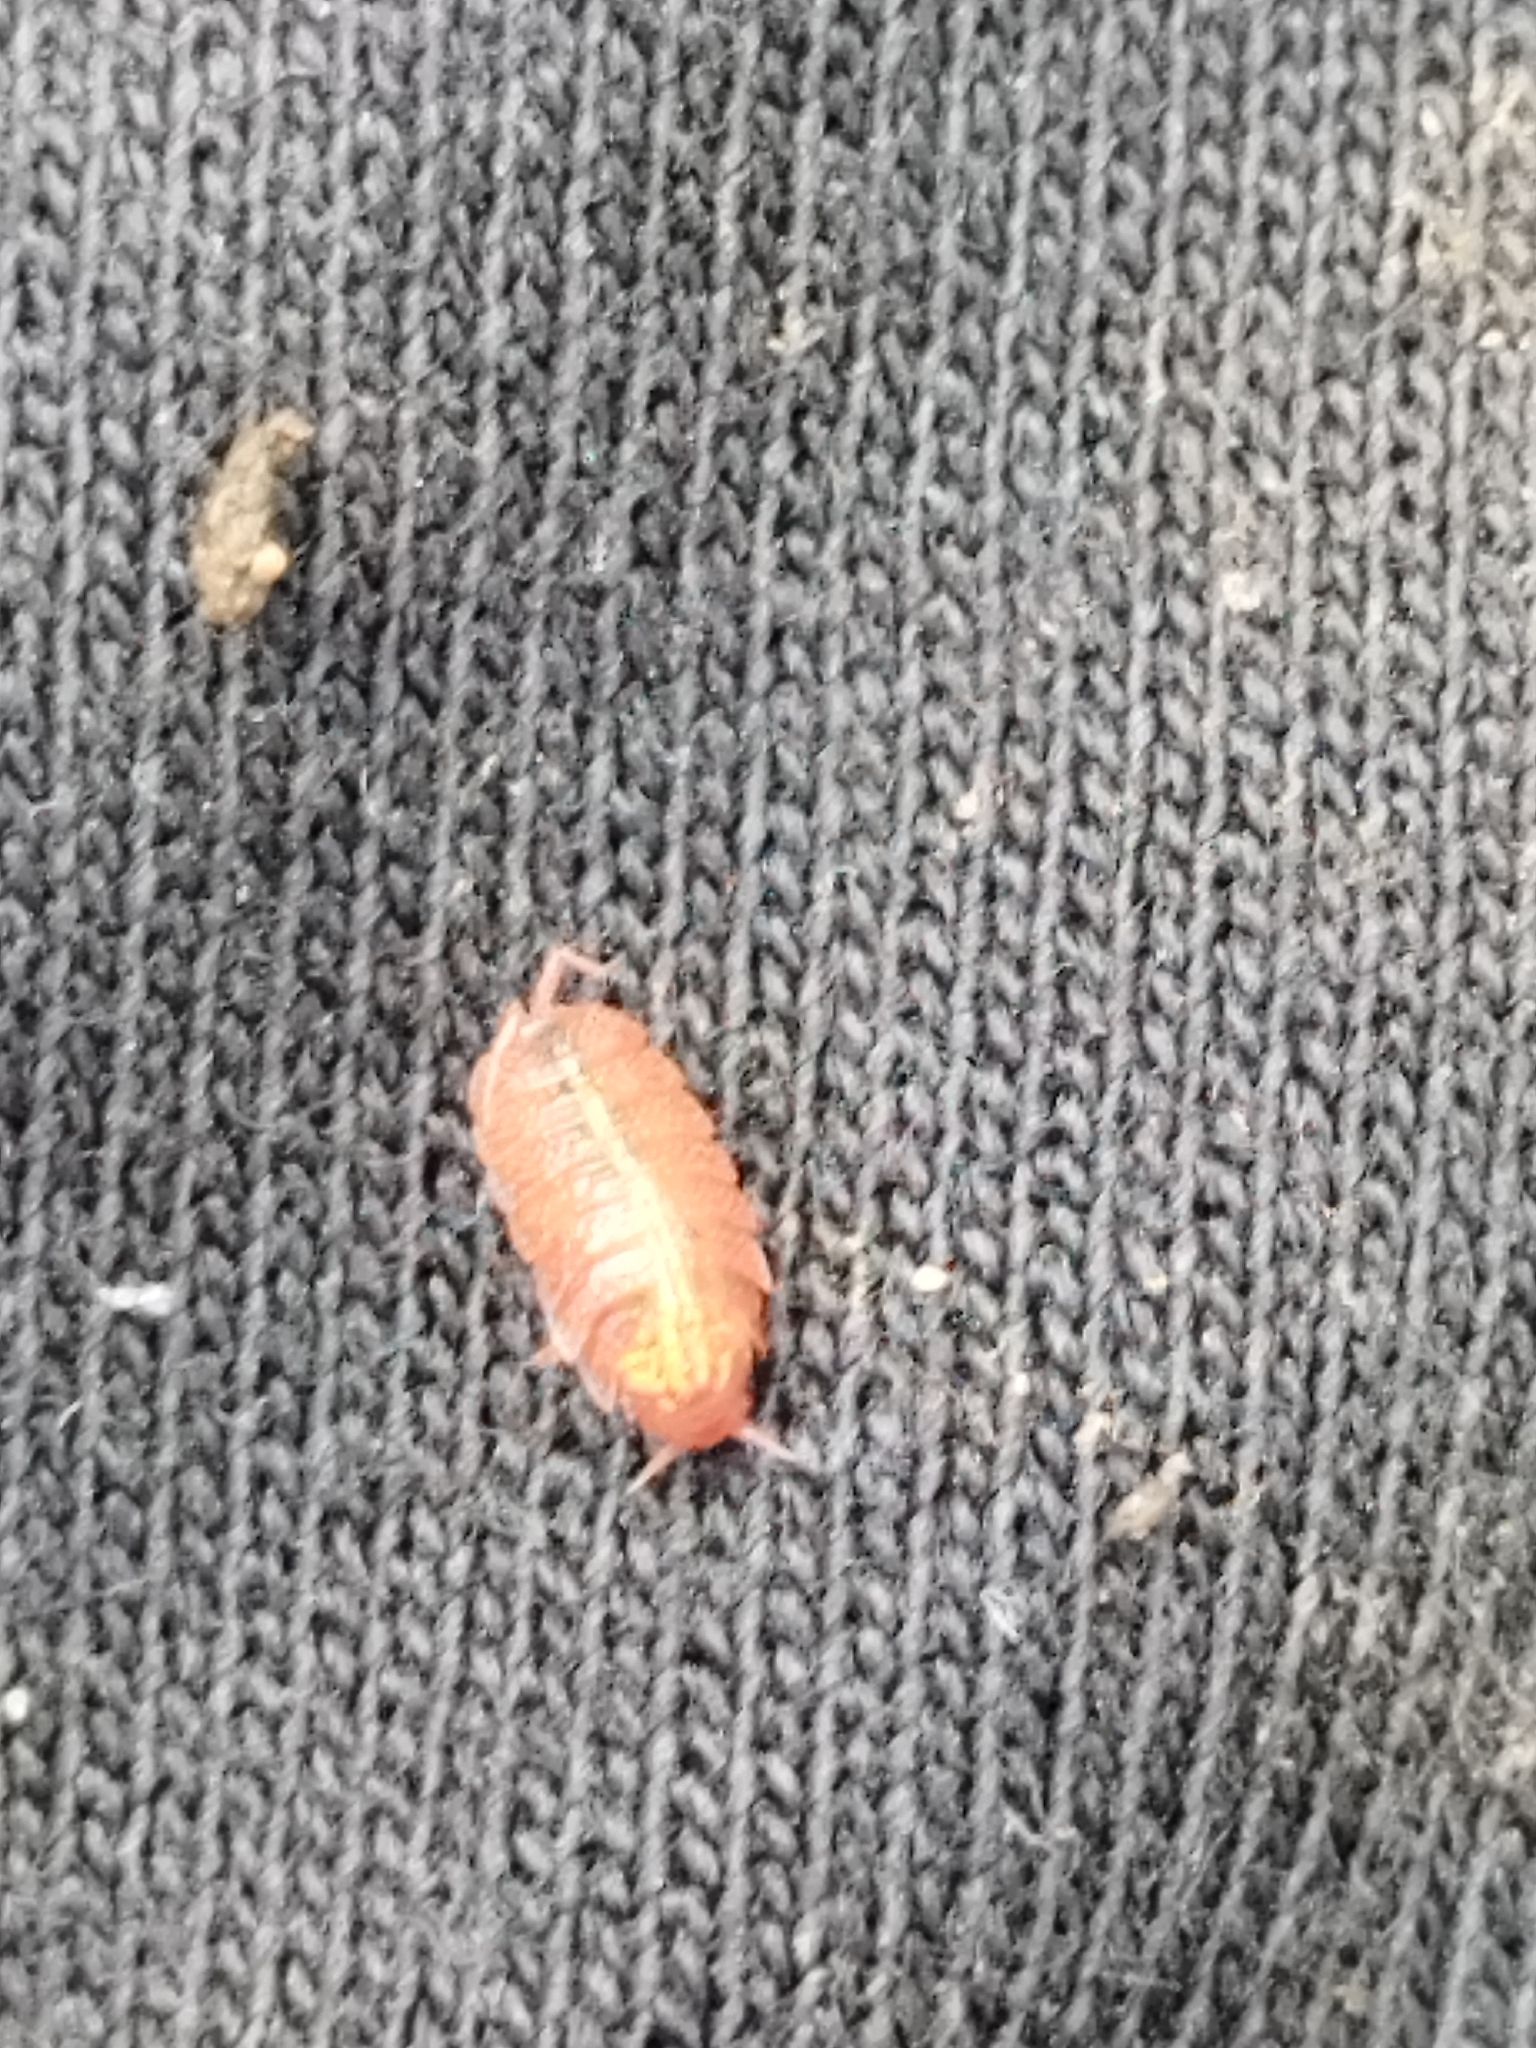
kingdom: Animalia
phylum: Arthropoda
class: Malacostraca
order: Isopoda
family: Trichoniscidae
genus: Androniscus
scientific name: Androniscus dentiger
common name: Rosy woodlouse
